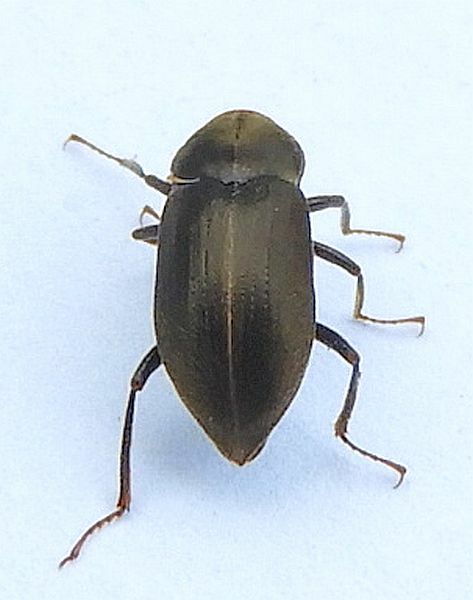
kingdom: Animalia
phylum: Arthropoda
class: Insecta
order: Coleoptera
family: Dryopidae
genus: Helichus
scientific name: Helichus lithophilus
